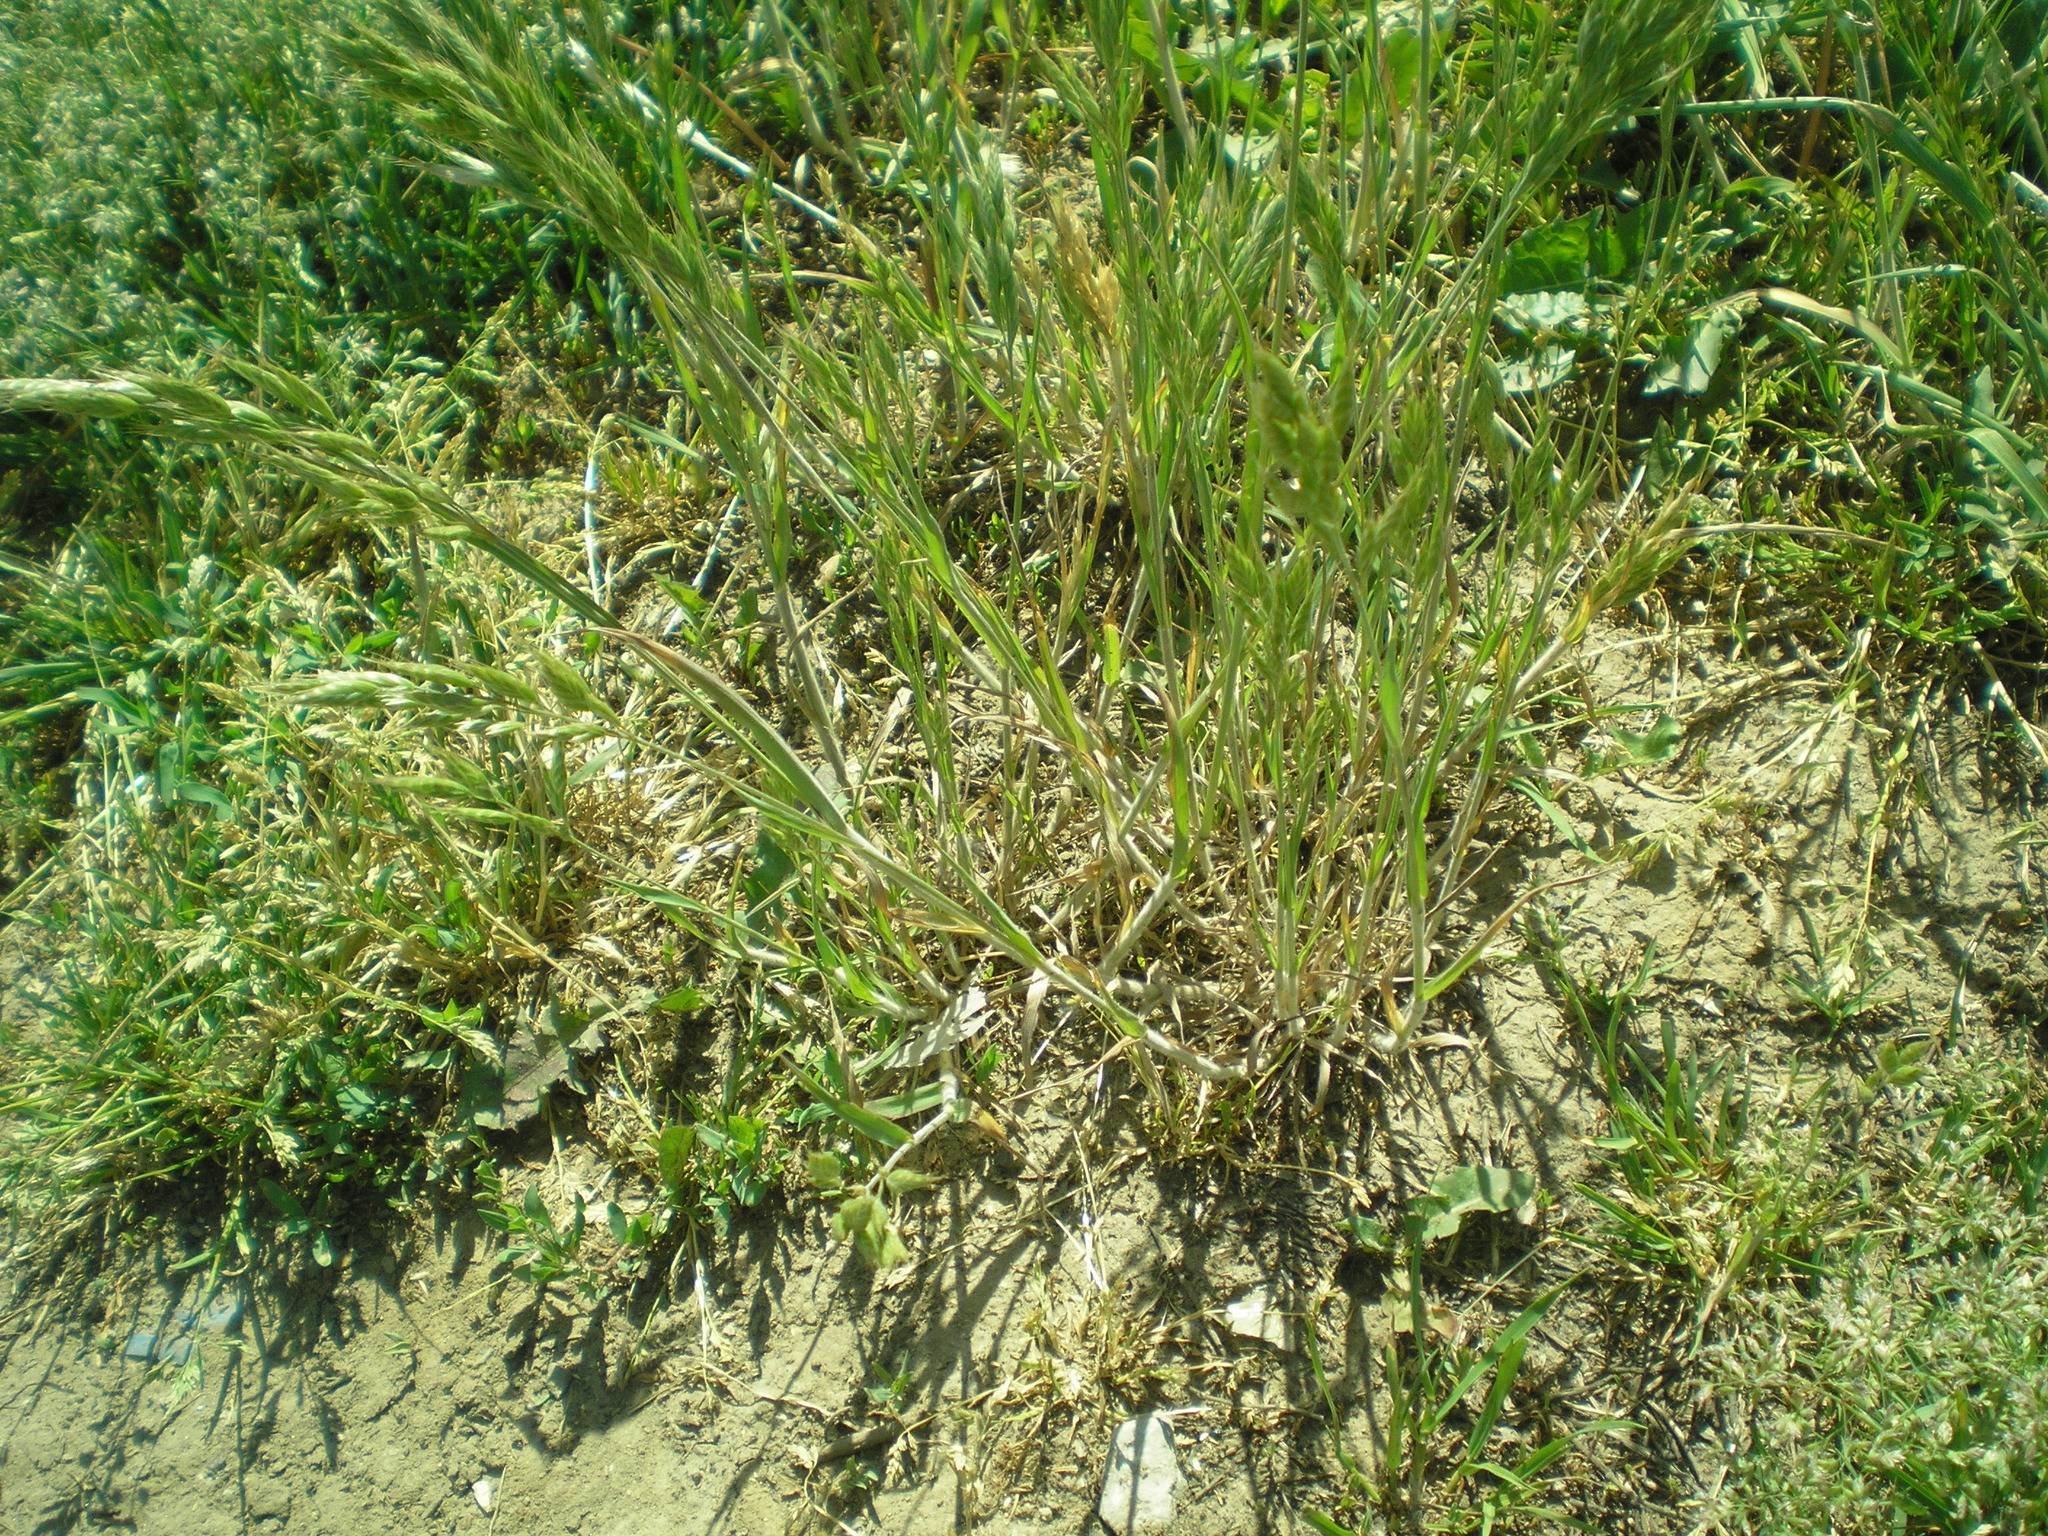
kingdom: Plantae
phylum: Tracheophyta
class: Liliopsida
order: Poales
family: Poaceae
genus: Bromus
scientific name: Bromus hordeaceus
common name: Soft brome
